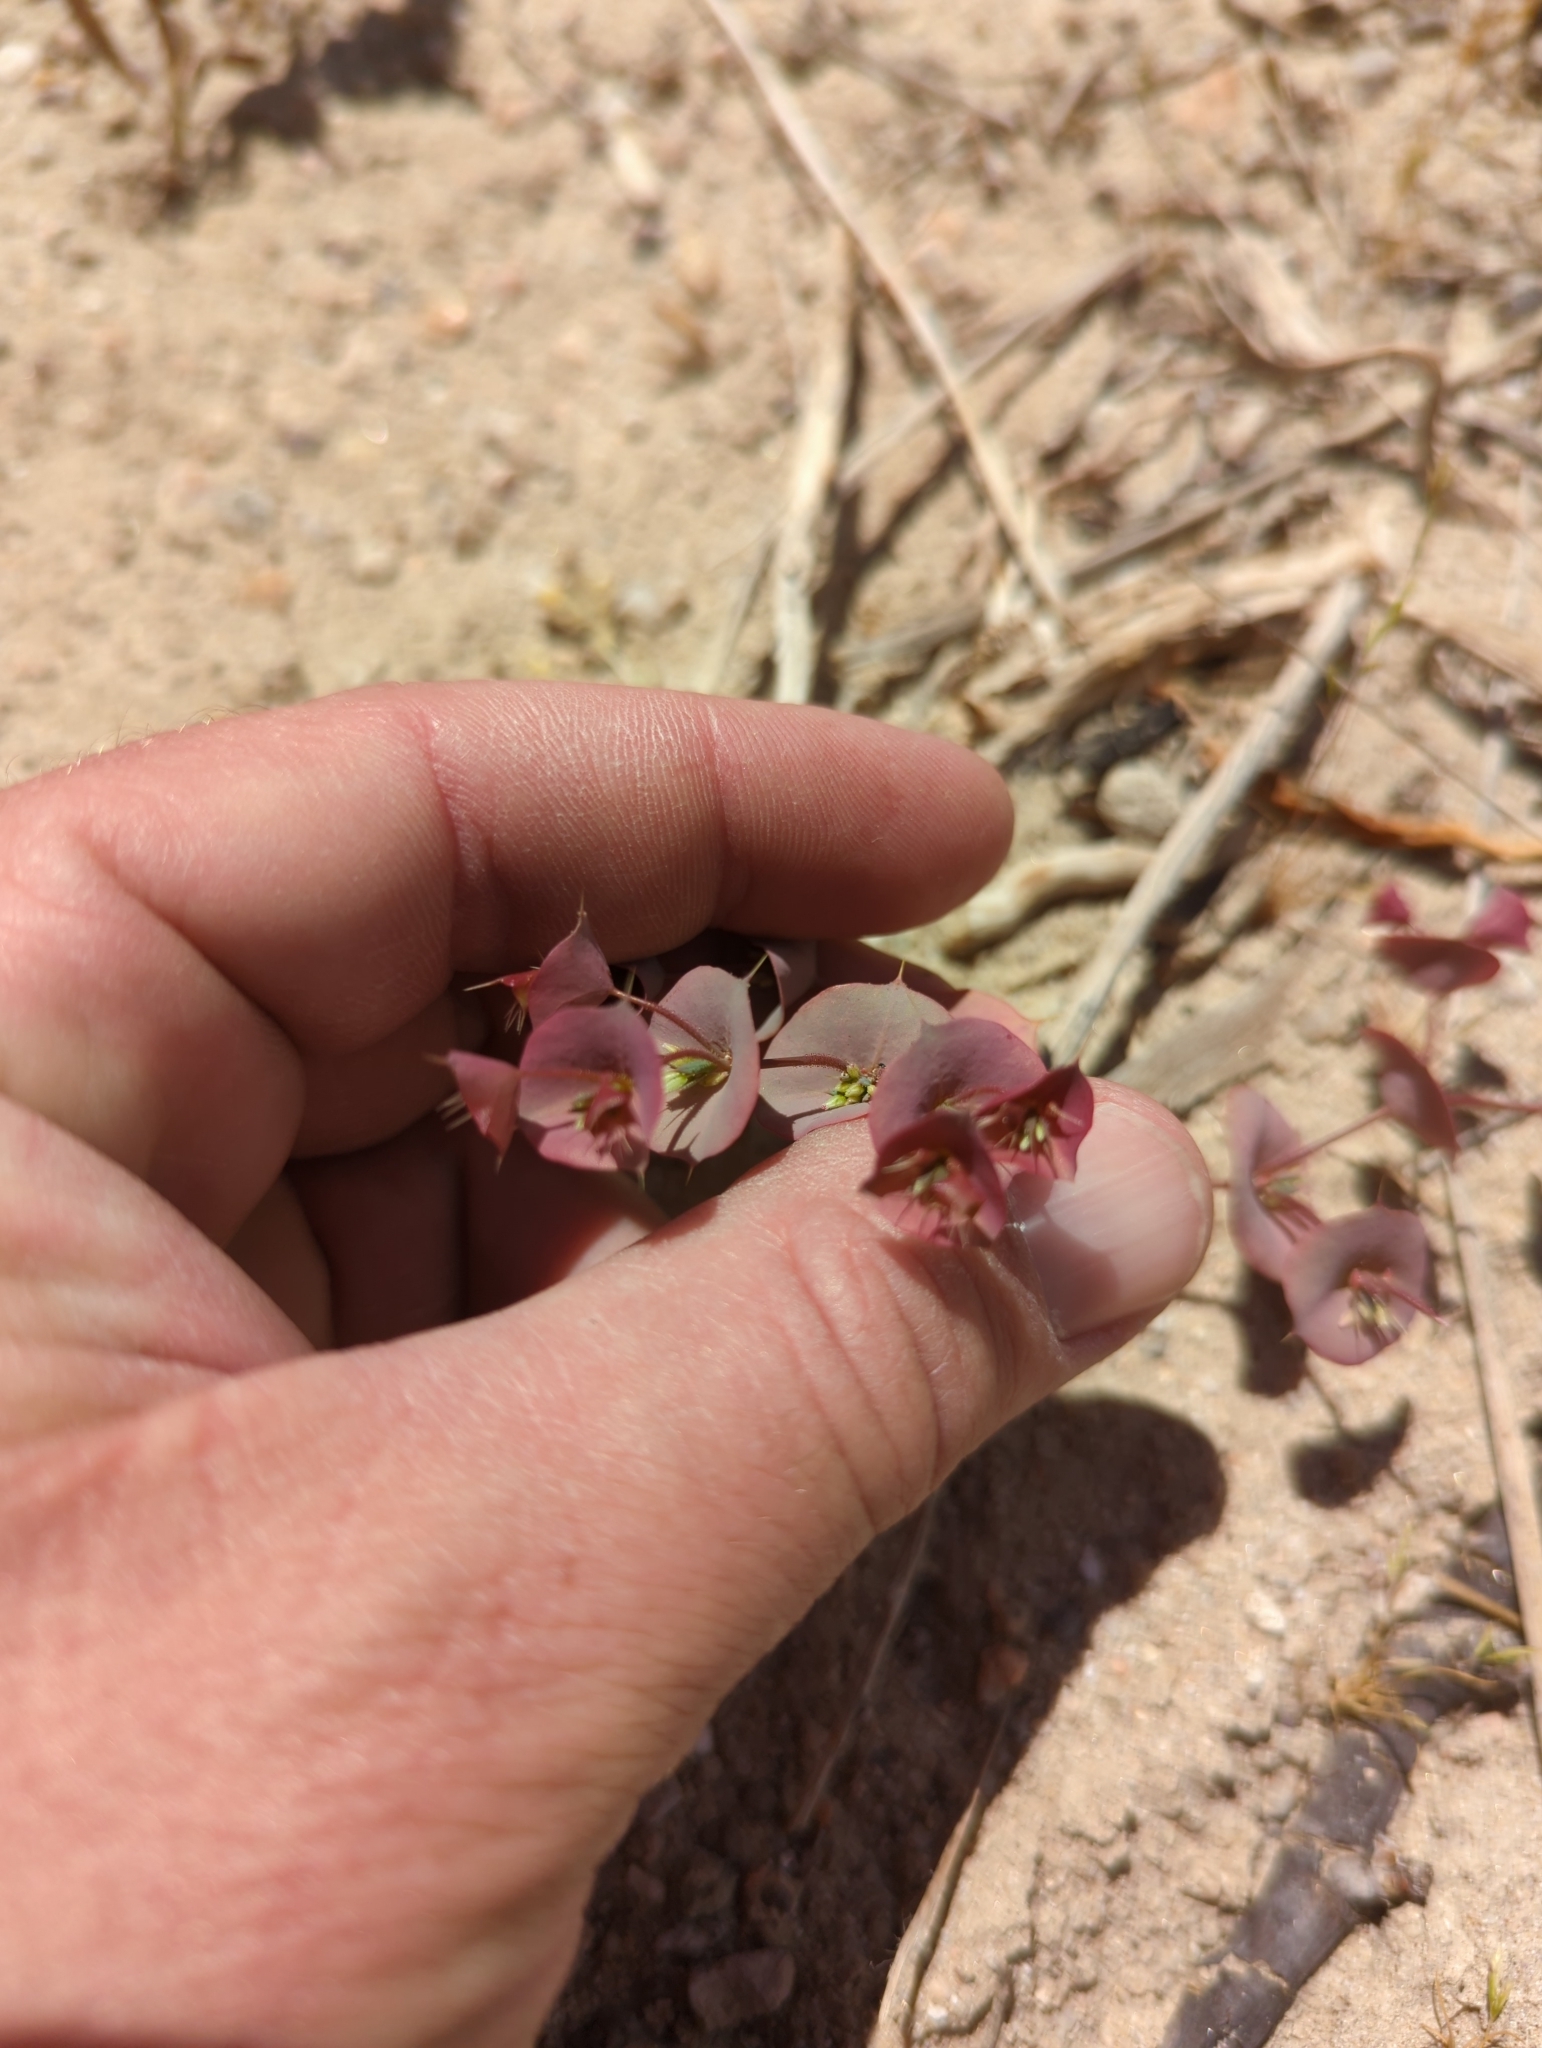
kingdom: Plantae
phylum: Tracheophyta
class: Magnoliopsida
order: Caryophyllales
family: Polygonaceae
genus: Oxytheca
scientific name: Oxytheca perfoliata
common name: Round-leaf puncturebract
